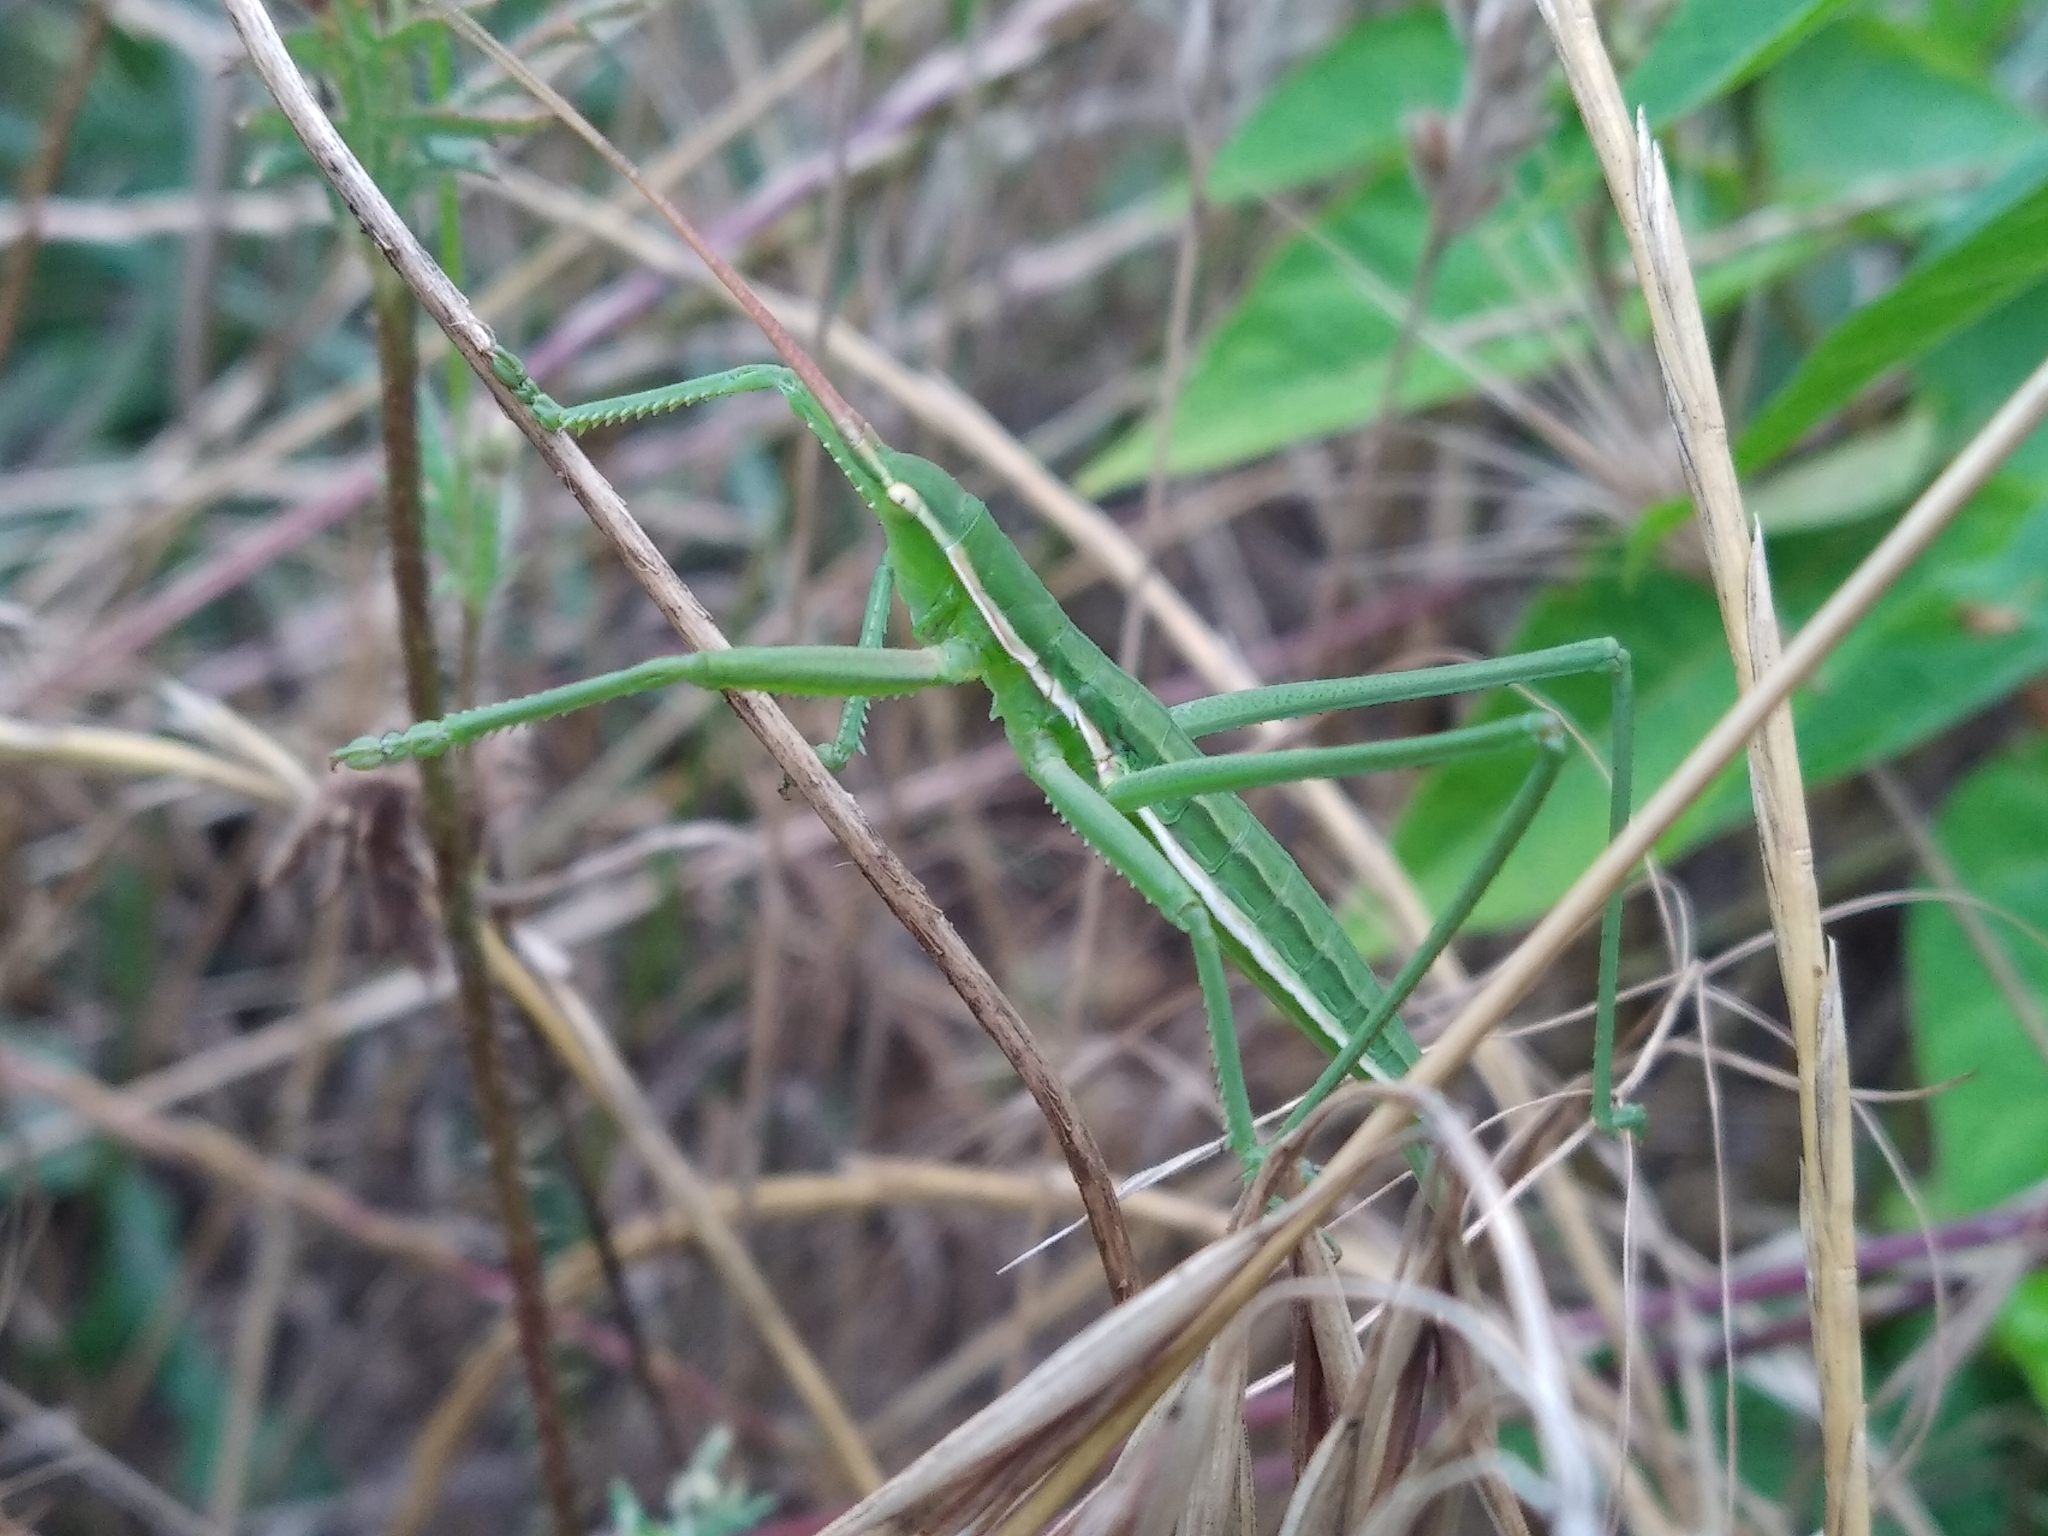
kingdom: Animalia
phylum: Arthropoda
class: Insecta
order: Orthoptera
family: Tettigoniidae
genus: Saga
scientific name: Saga pedo
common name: Common predatory bush-cricket
